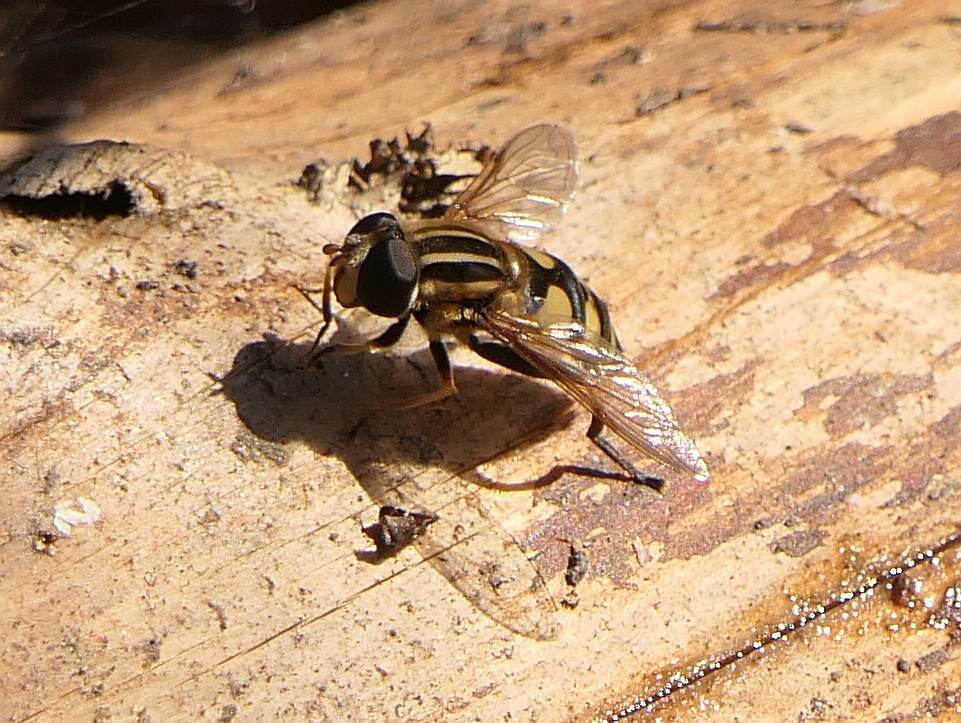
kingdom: Animalia
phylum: Arthropoda
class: Insecta
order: Diptera
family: Syrphidae
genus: Helophilus
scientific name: Helophilus fasciatus
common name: Narrow-headed marsh fly
